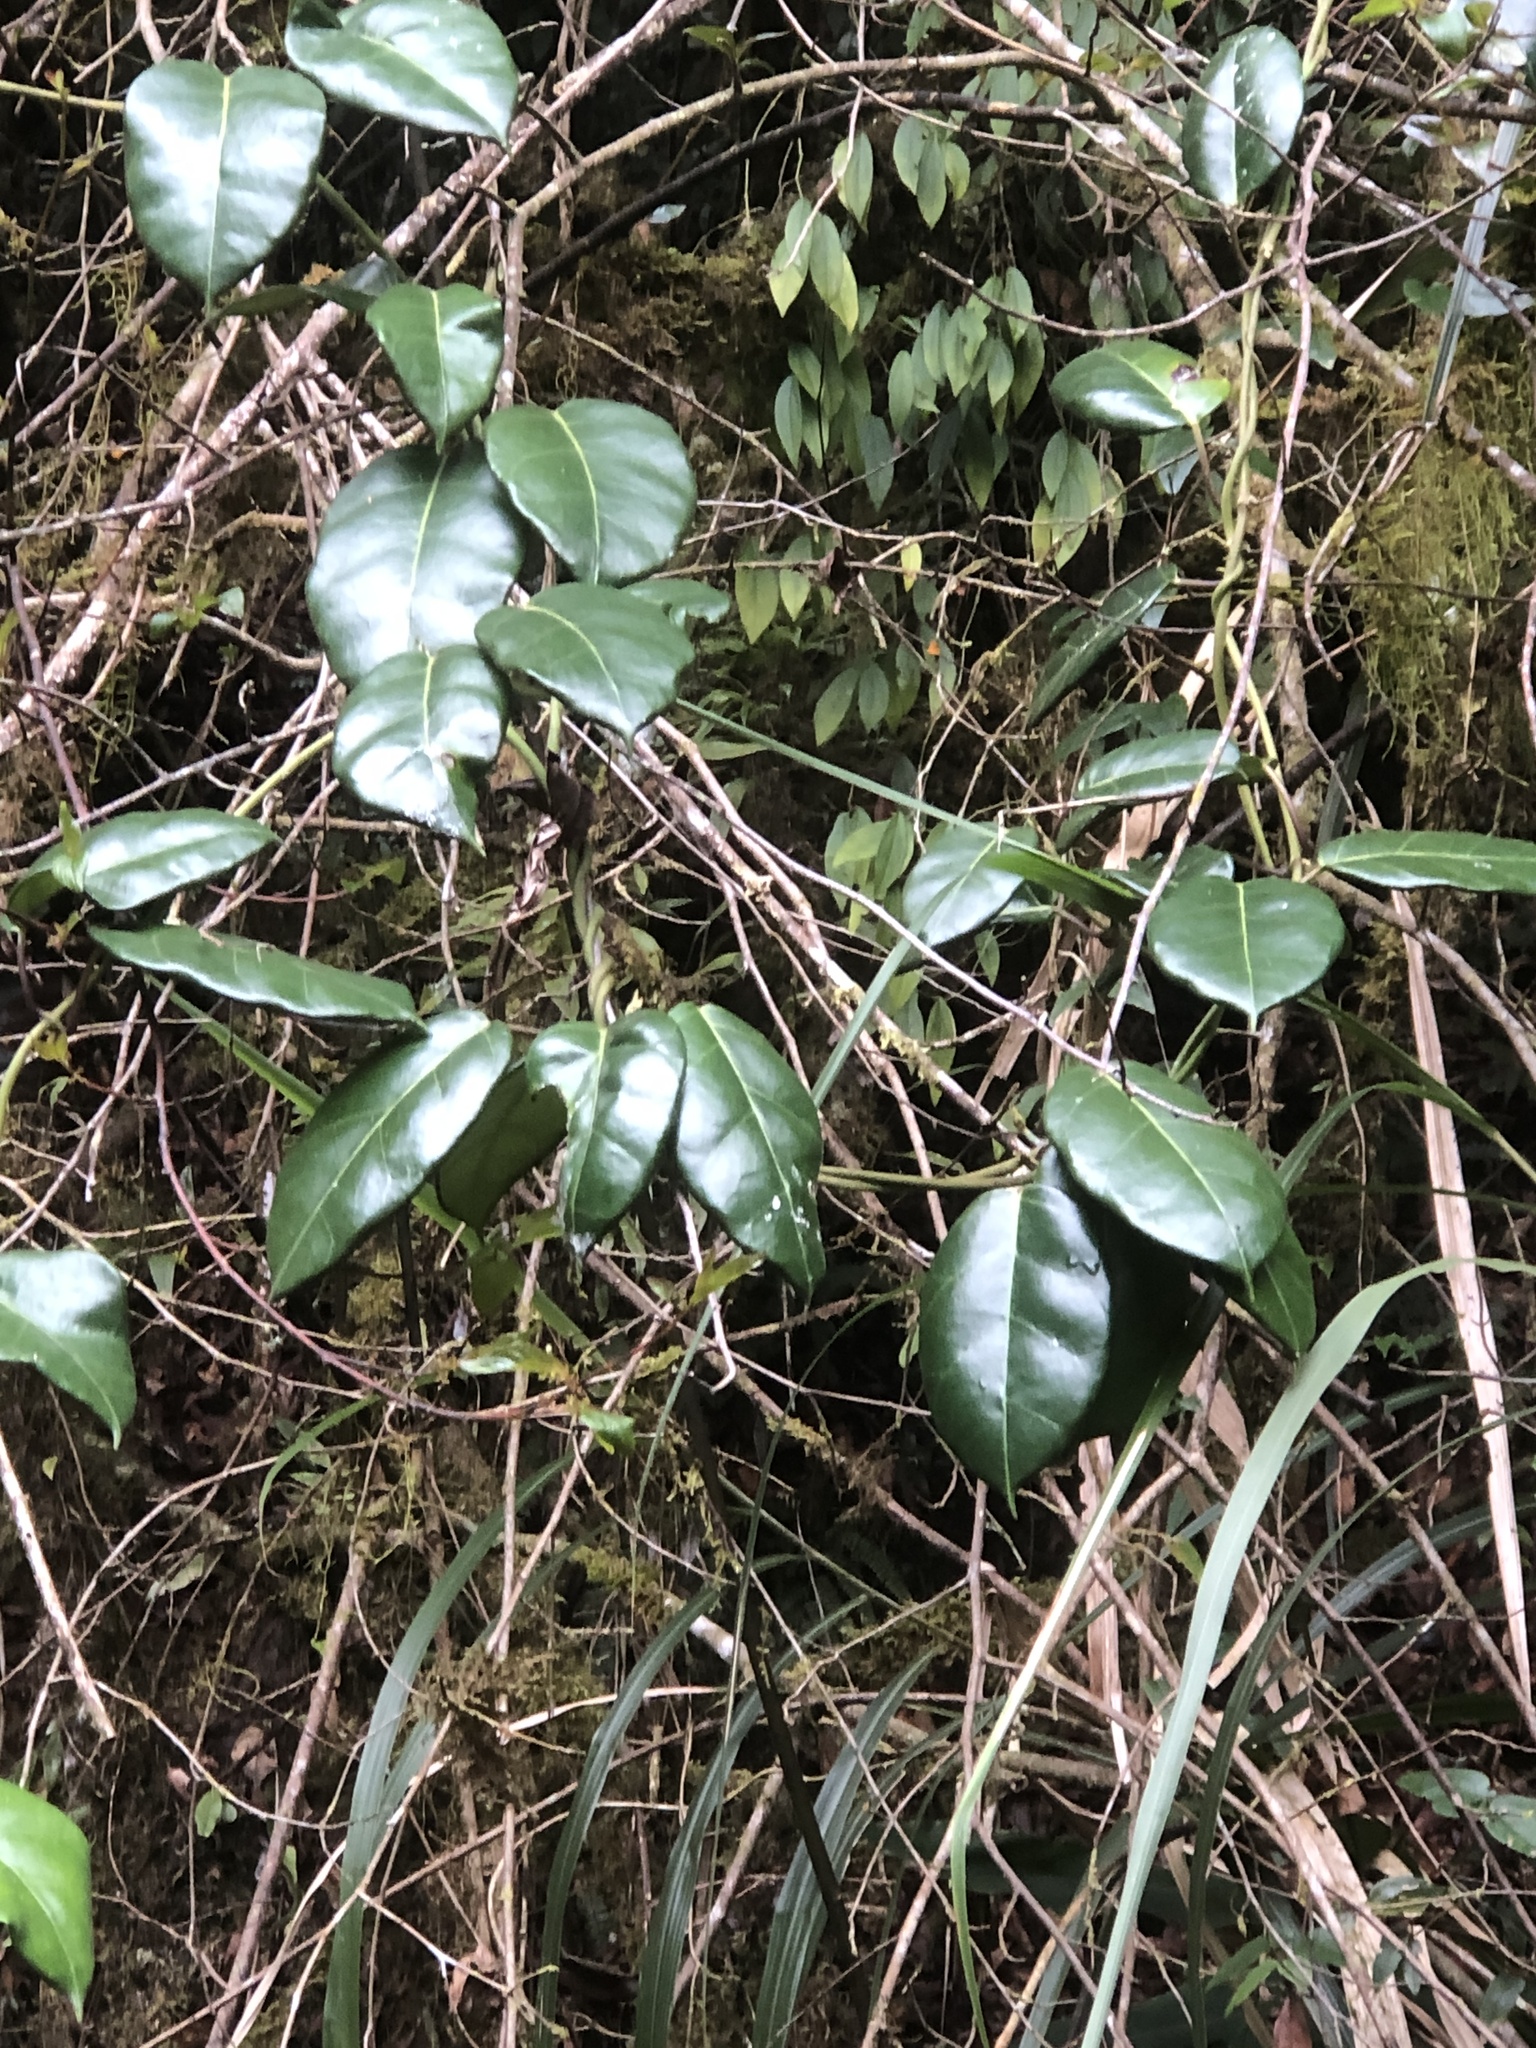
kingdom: Plantae
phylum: Tracheophyta
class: Magnoliopsida
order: Gentianales
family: Apocynaceae
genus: Sinomarsdenia
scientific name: Sinomarsdenia formosana
